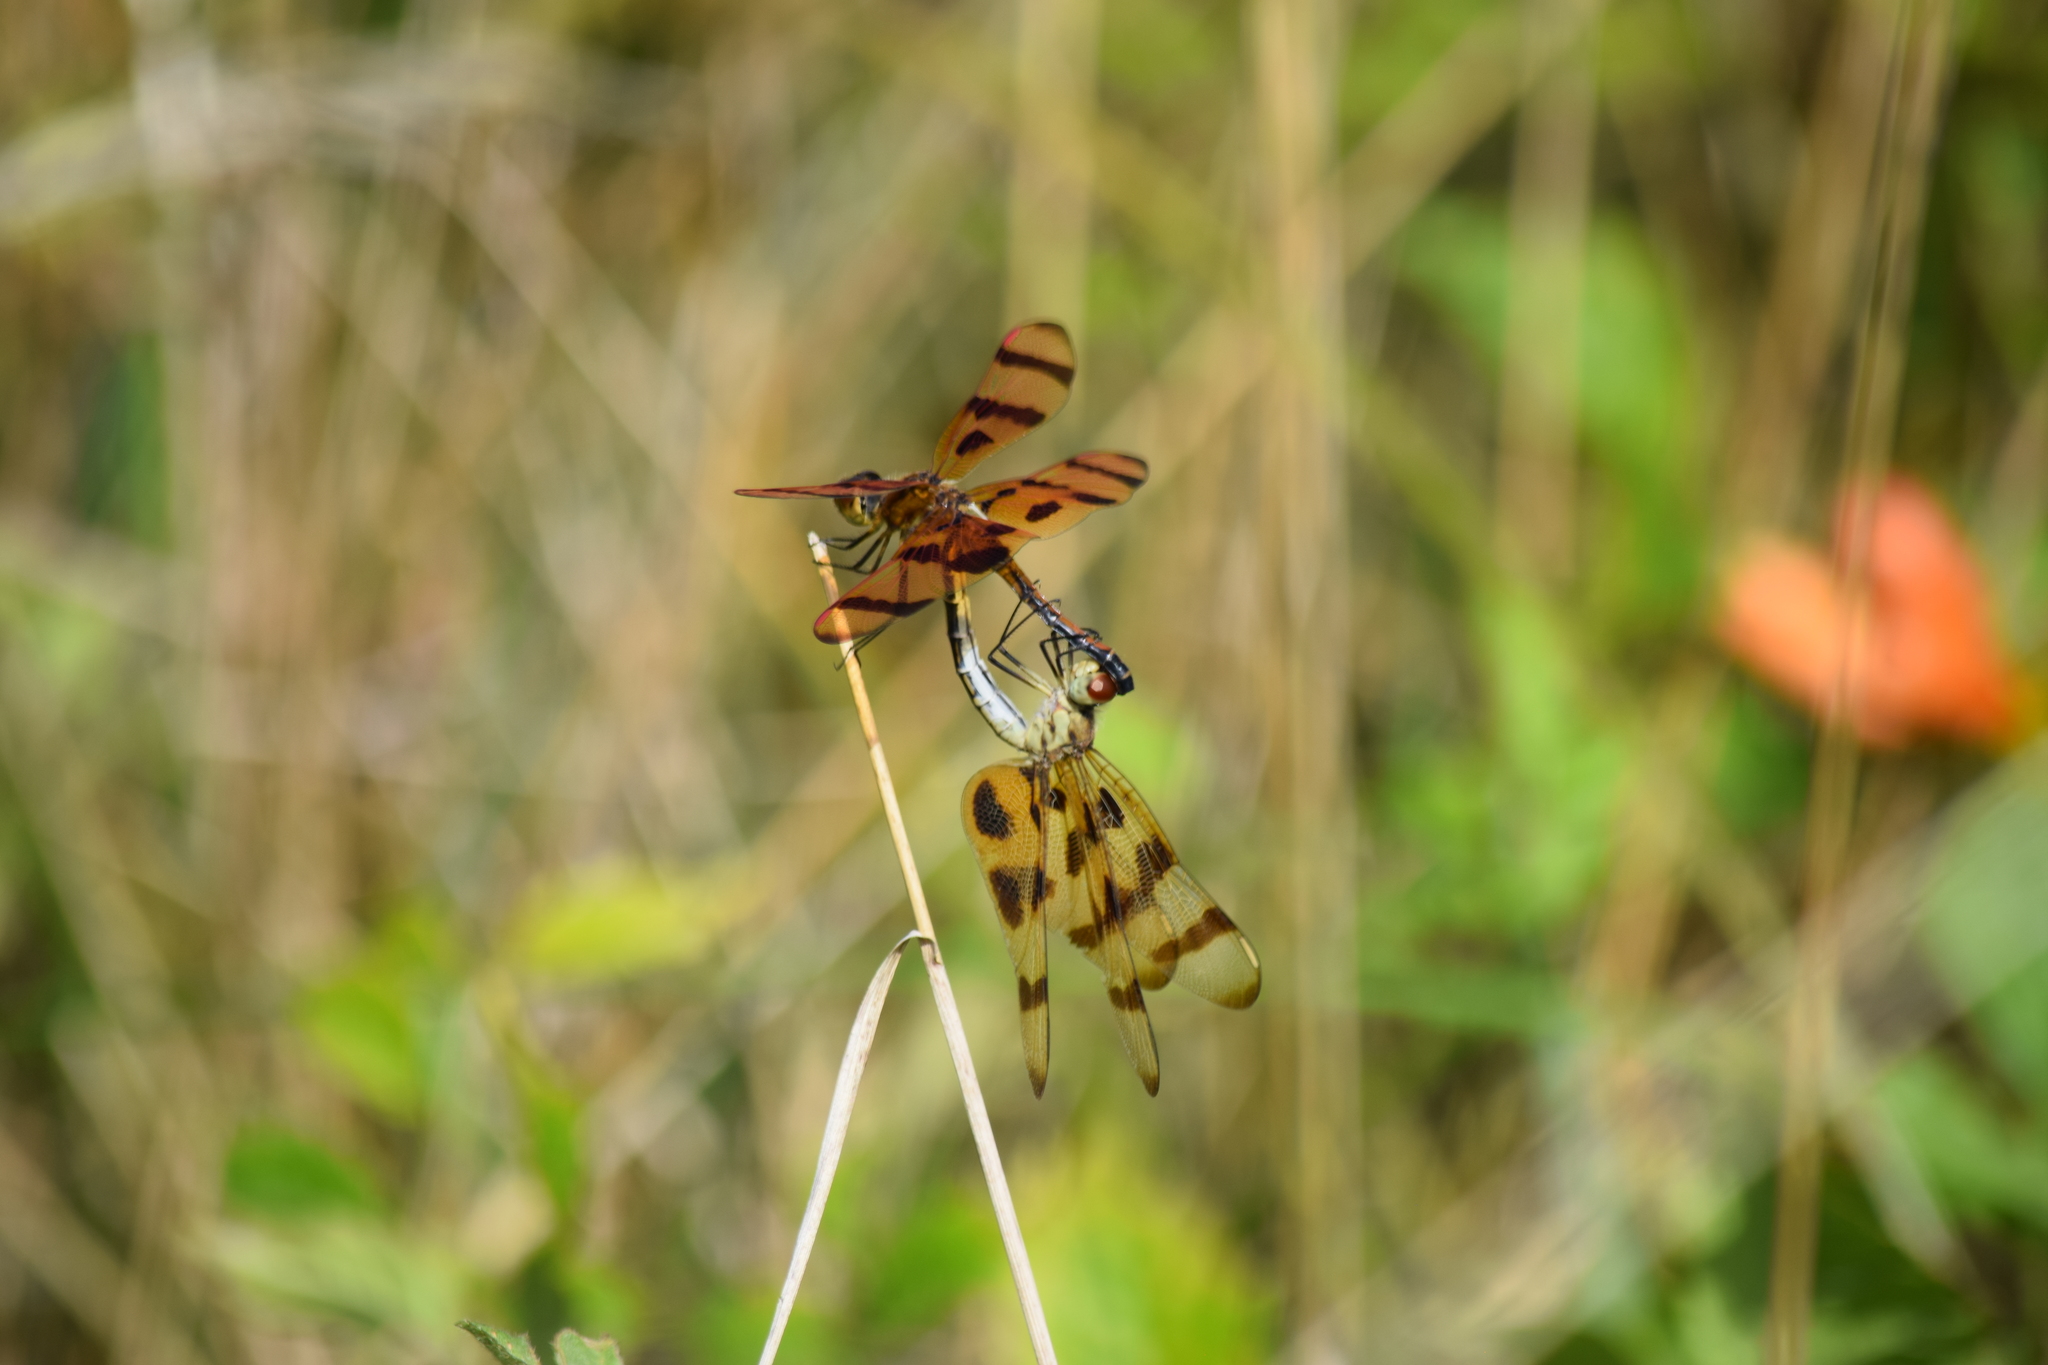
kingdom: Animalia
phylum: Arthropoda
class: Insecta
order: Odonata
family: Libellulidae
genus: Celithemis
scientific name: Celithemis eponina
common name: Halloween pennant
